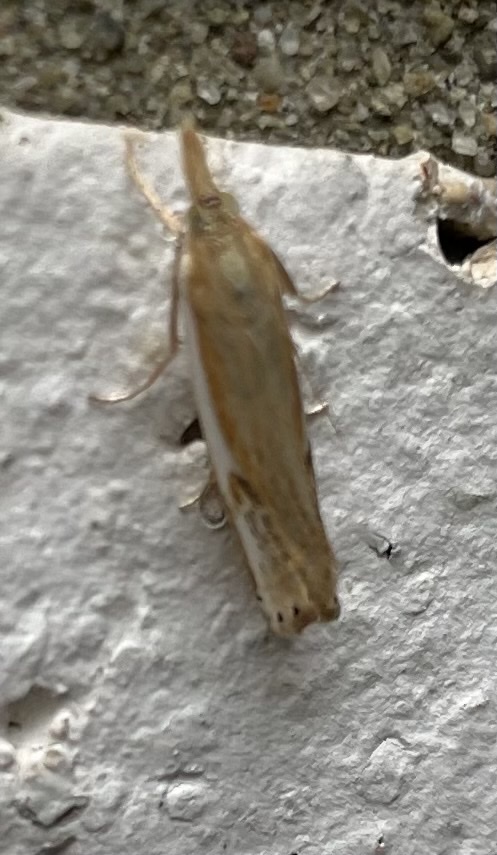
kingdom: Animalia
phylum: Arthropoda
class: Insecta
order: Lepidoptera
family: Crambidae
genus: Crambus
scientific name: Crambus
